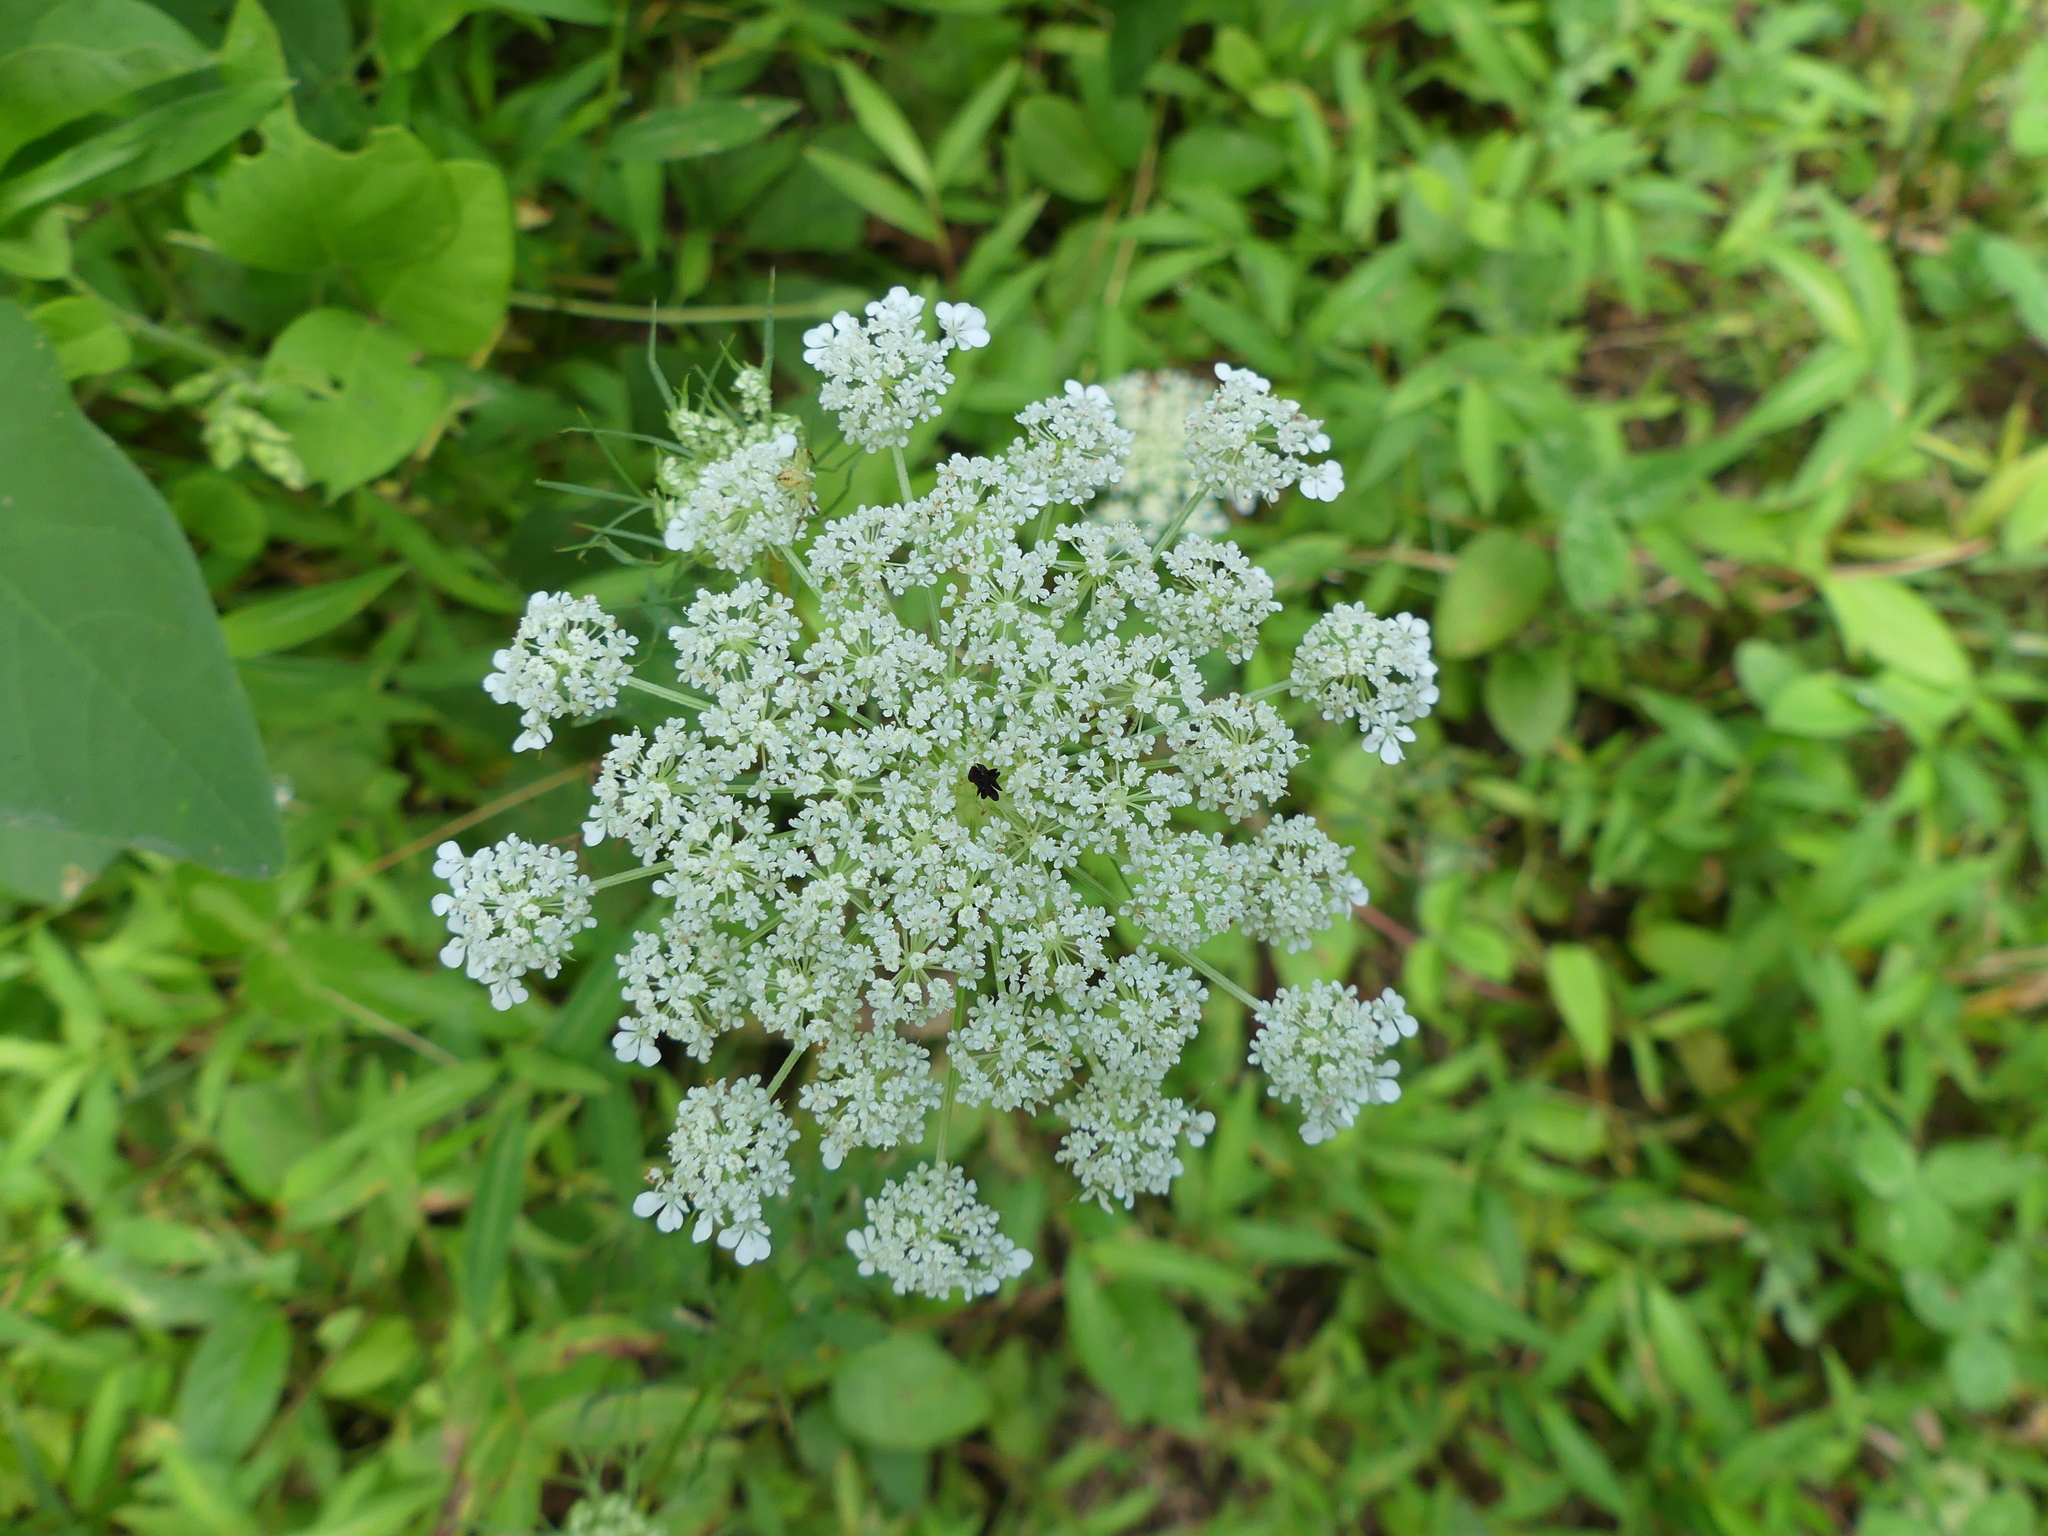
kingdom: Plantae
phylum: Tracheophyta
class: Magnoliopsida
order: Apiales
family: Apiaceae
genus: Daucus
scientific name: Daucus carota
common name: Wild carrot
